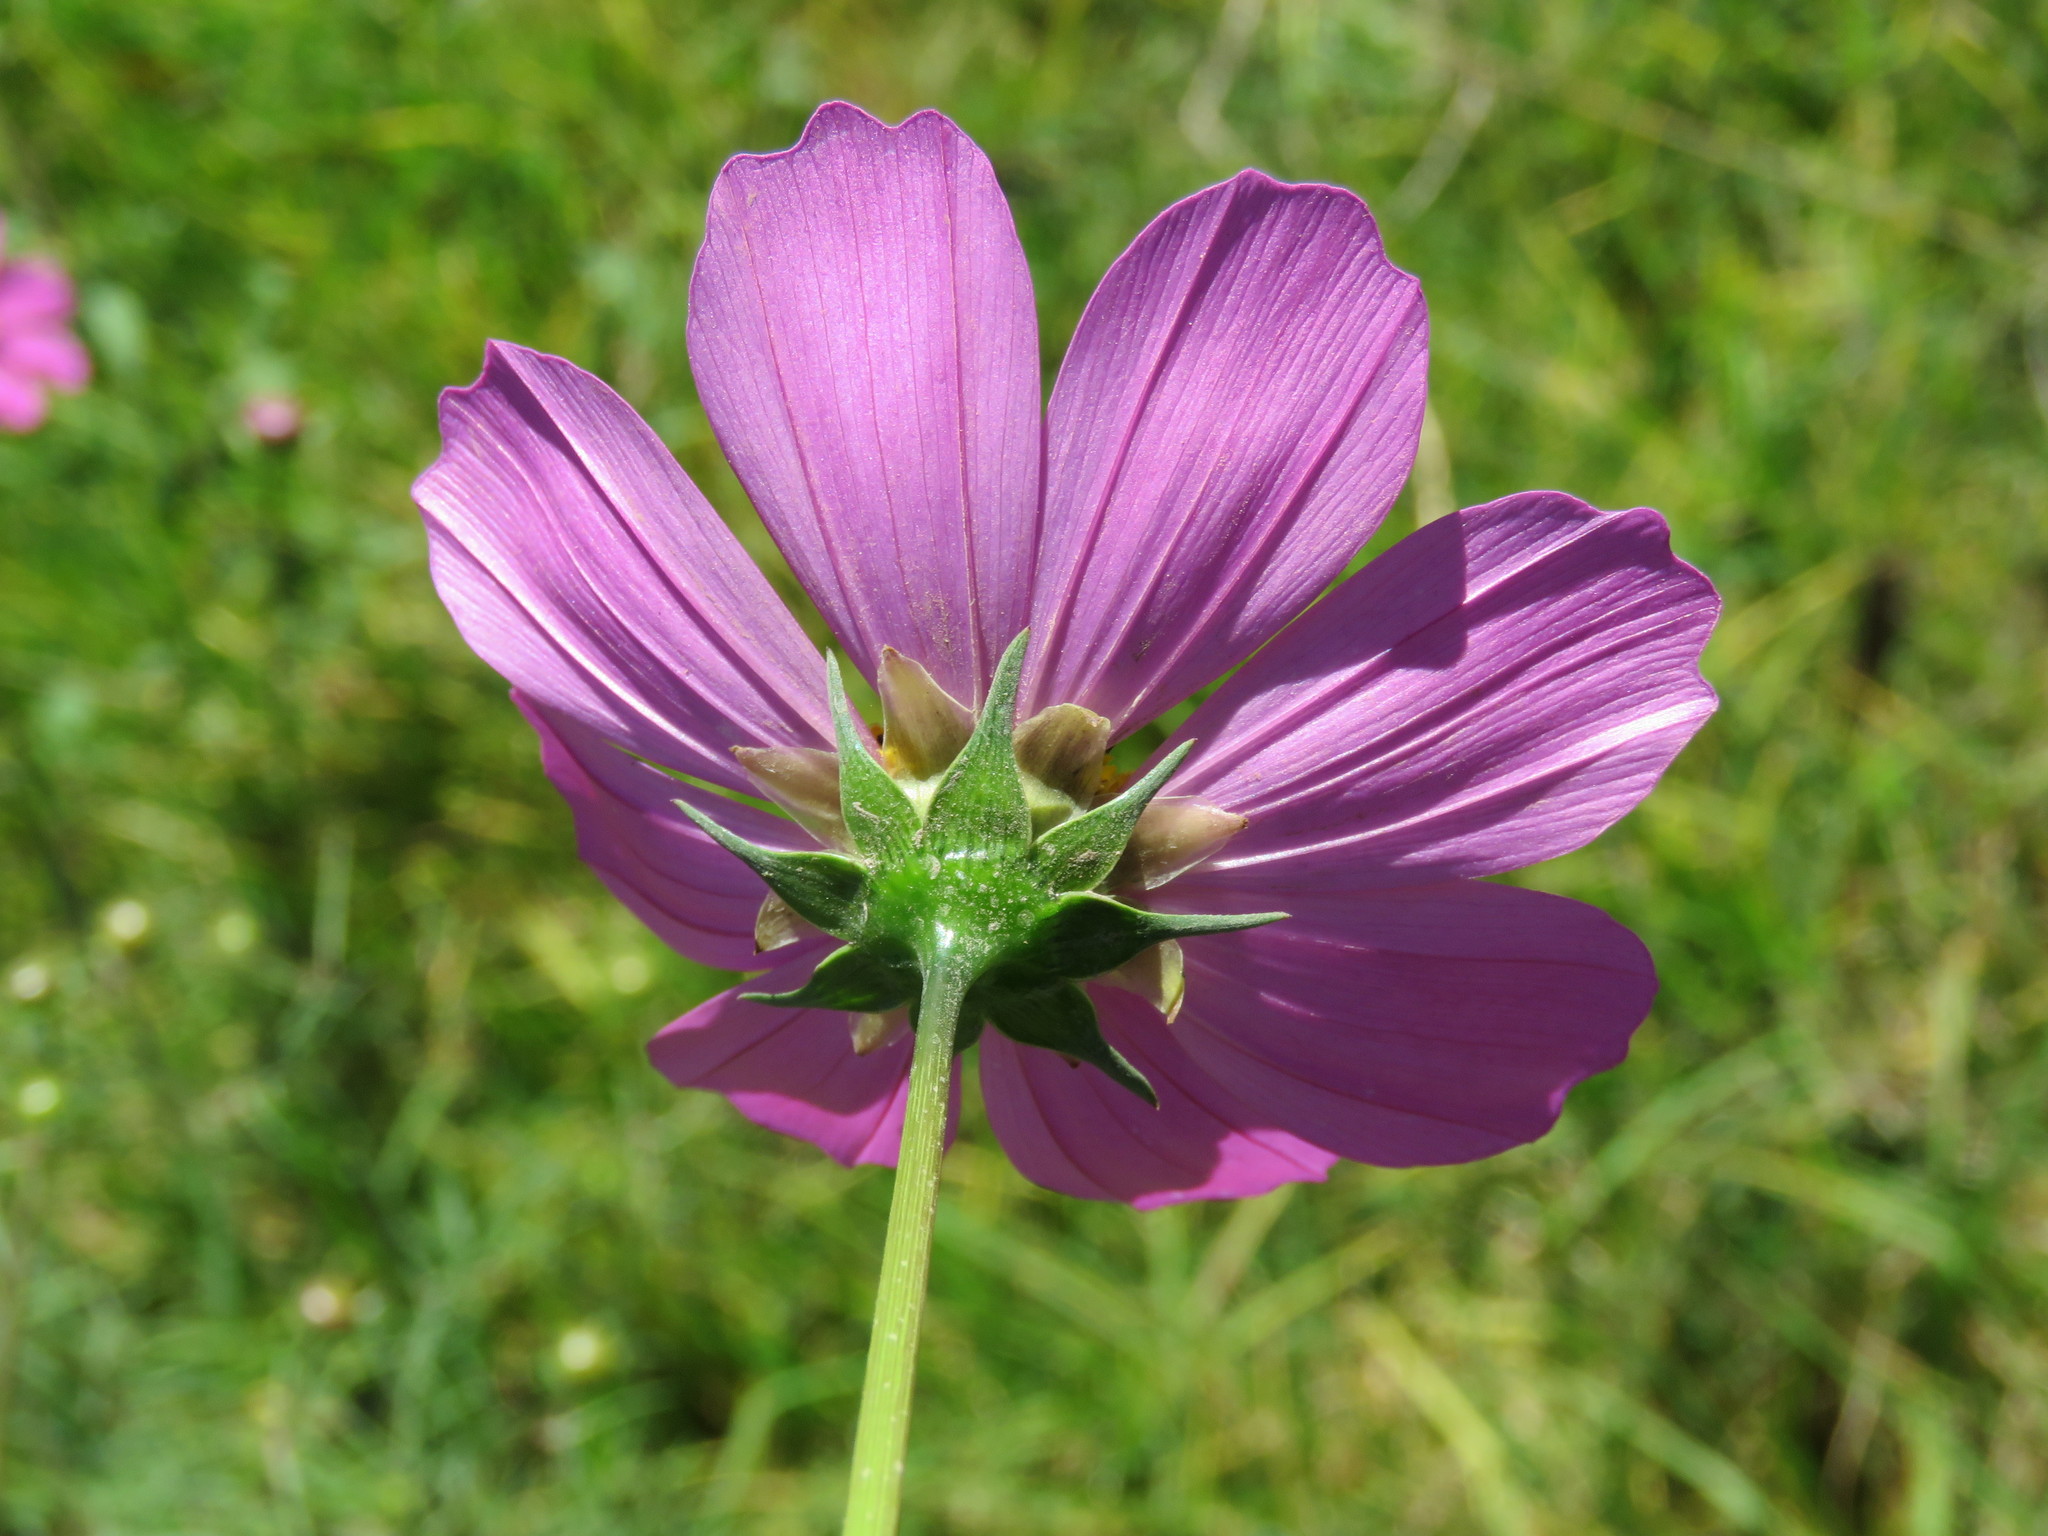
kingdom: Plantae
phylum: Tracheophyta
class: Magnoliopsida
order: Asterales
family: Asteraceae
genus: Cosmos
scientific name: Cosmos bipinnatus
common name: Garden cosmos
